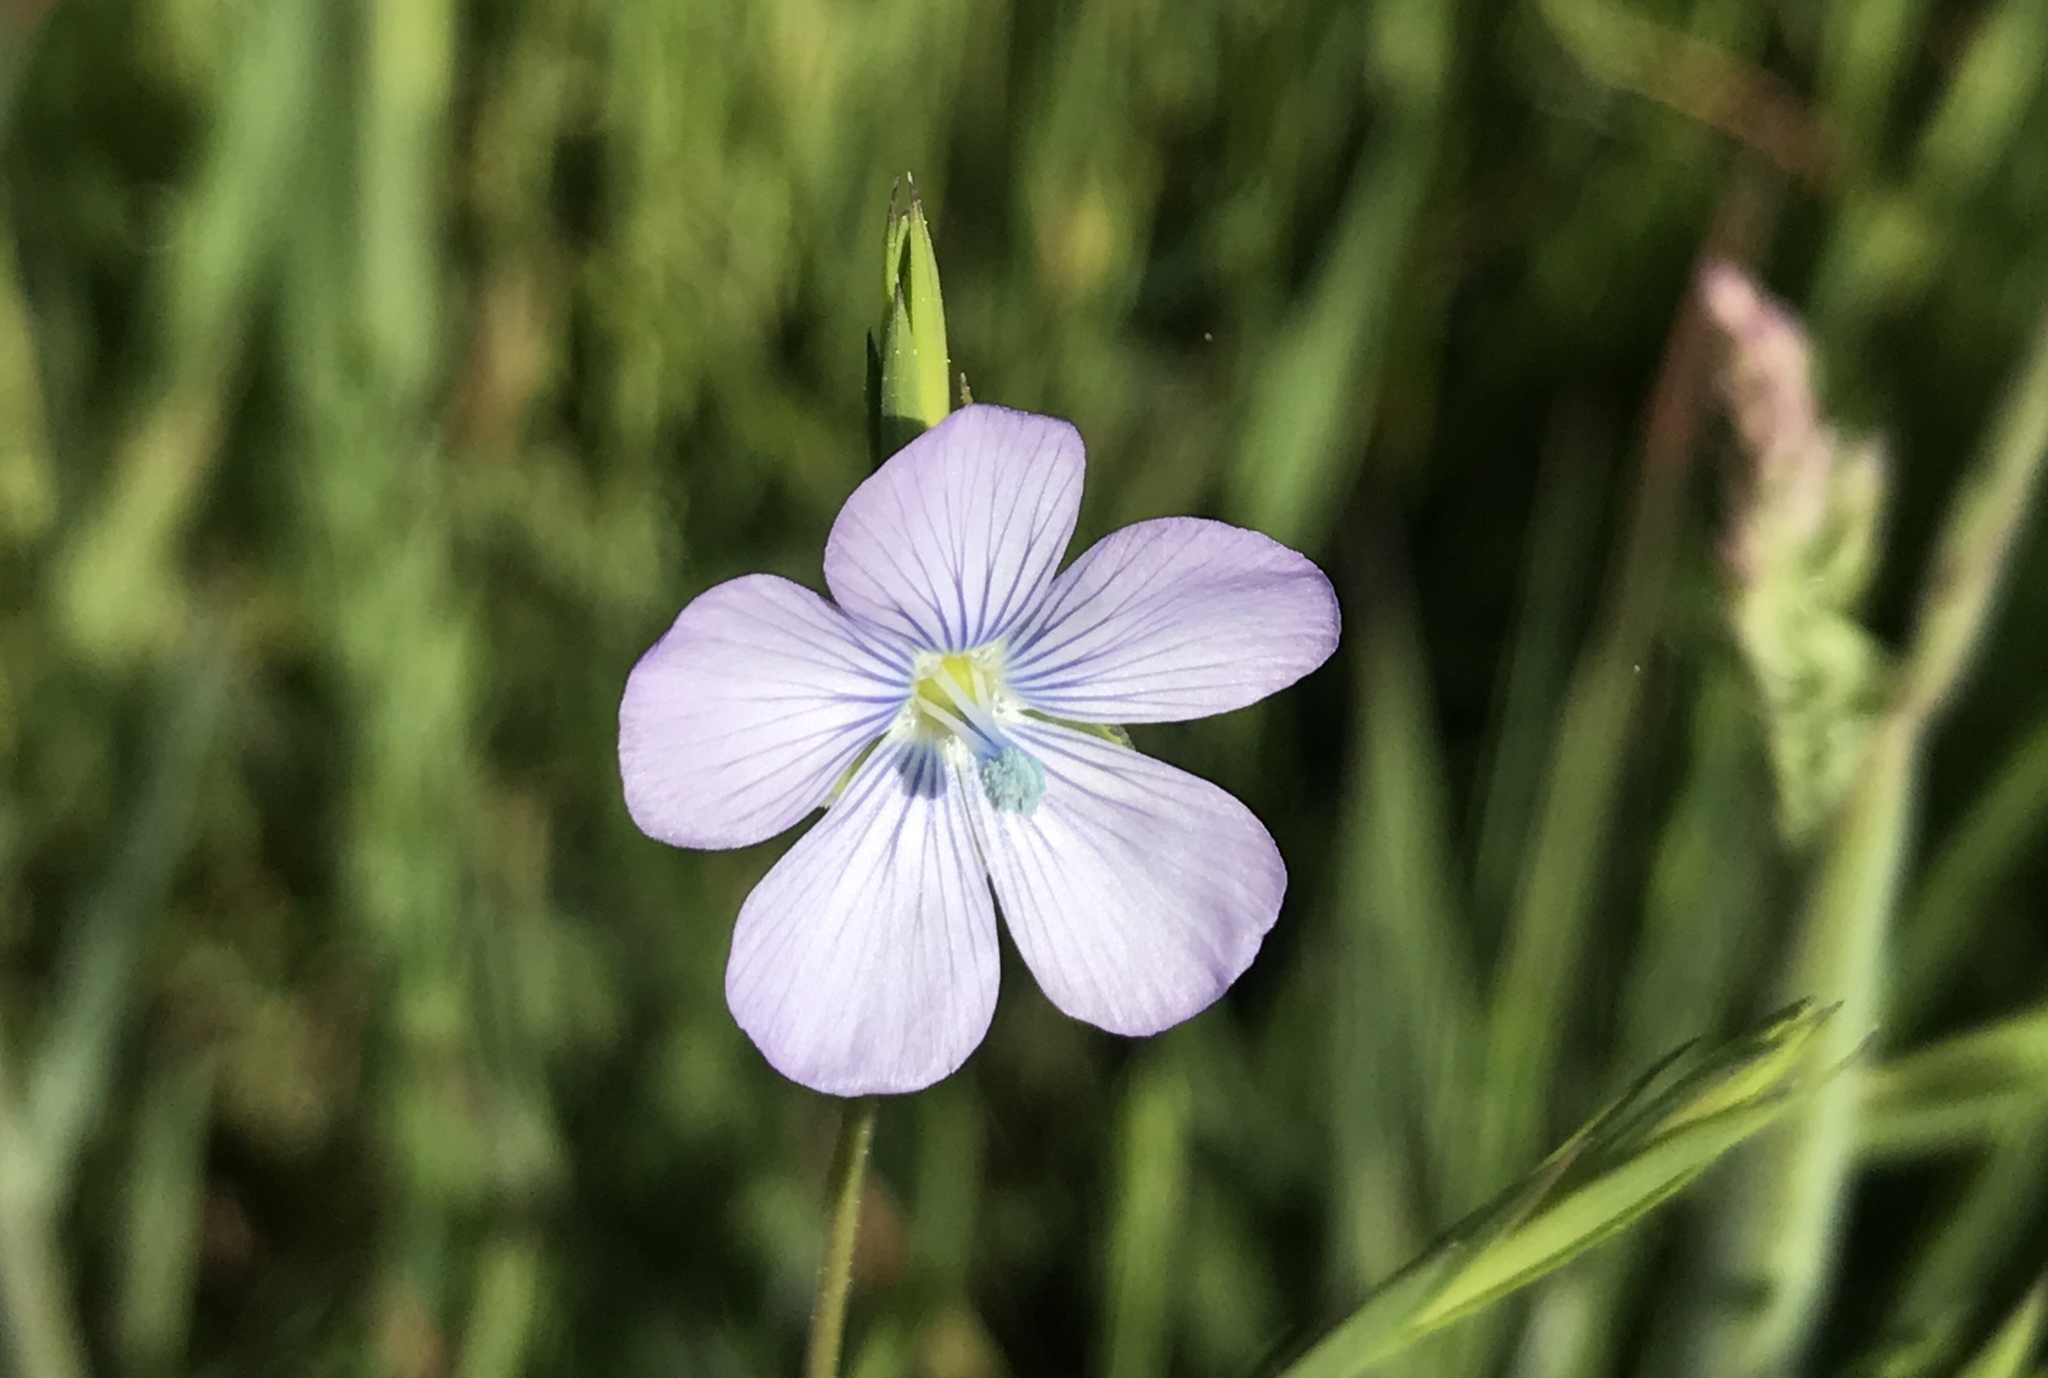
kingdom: Plantae
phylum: Tracheophyta
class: Magnoliopsida
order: Malpighiales
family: Linaceae
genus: Linum
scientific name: Linum bienne
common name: Pale flax
